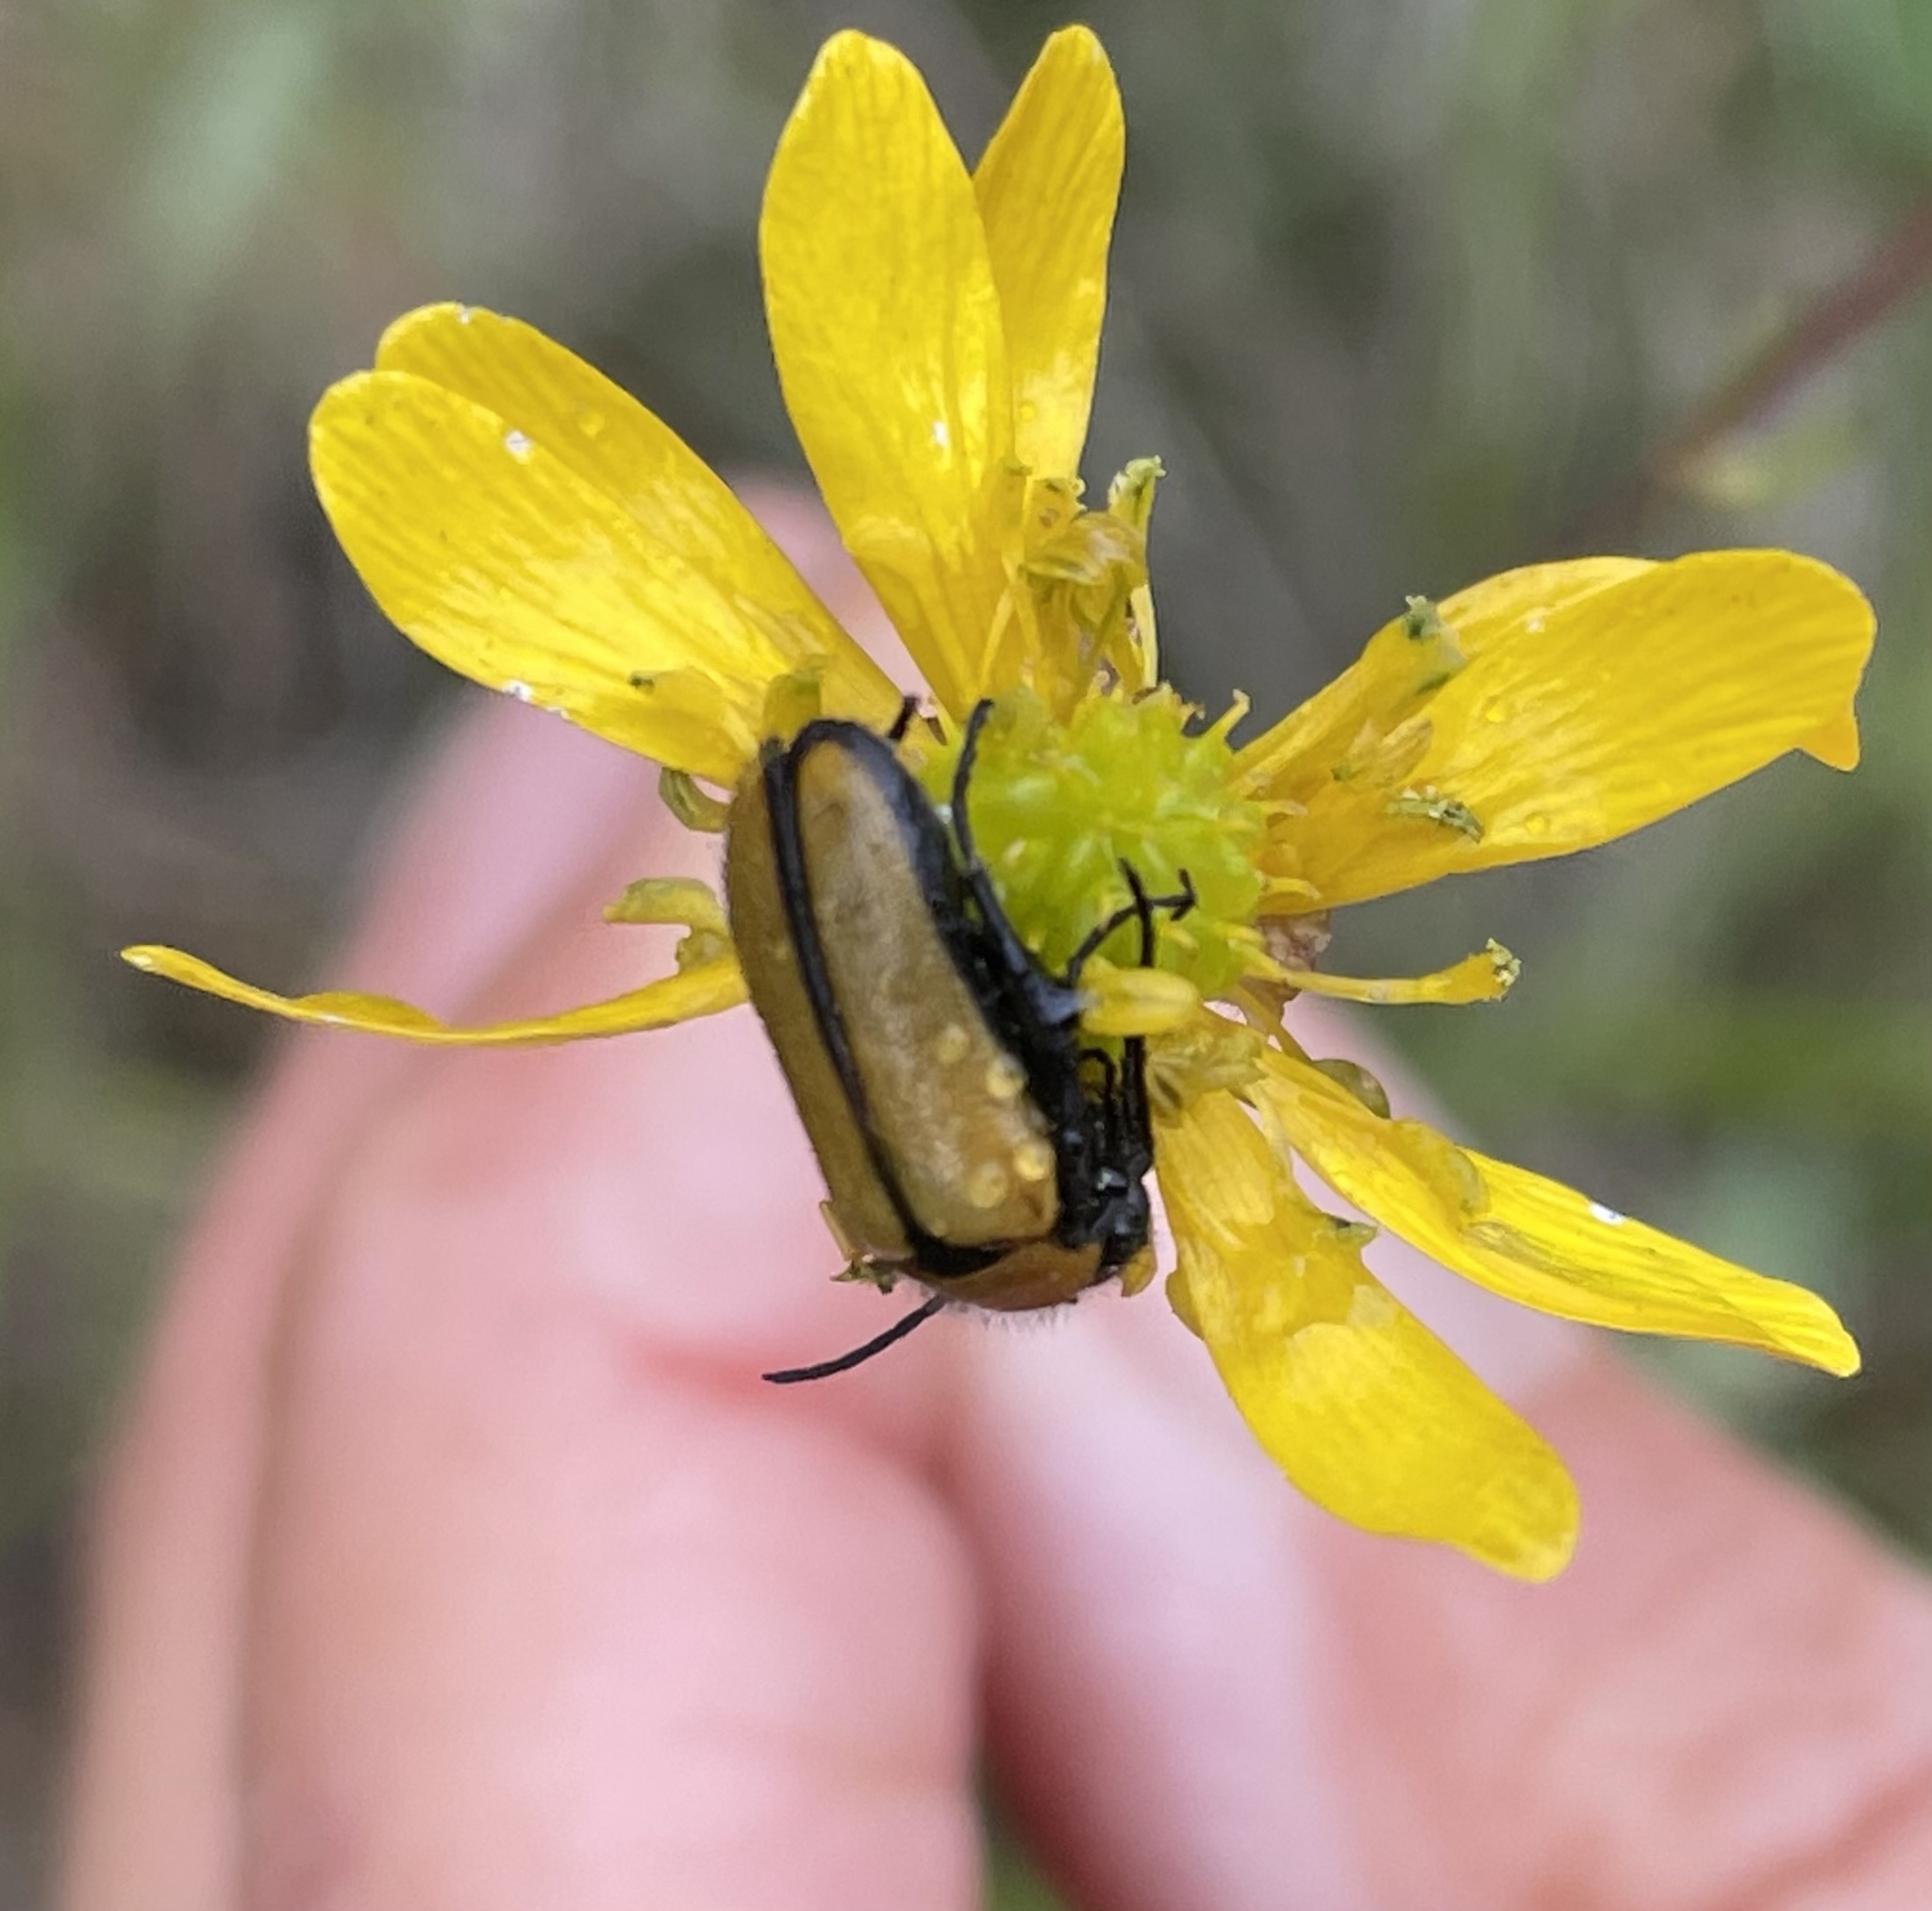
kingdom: Animalia
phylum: Arthropoda
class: Insecta
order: Coleoptera
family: Meloidae
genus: Nemognatha
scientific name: Nemognatha scutellaris
